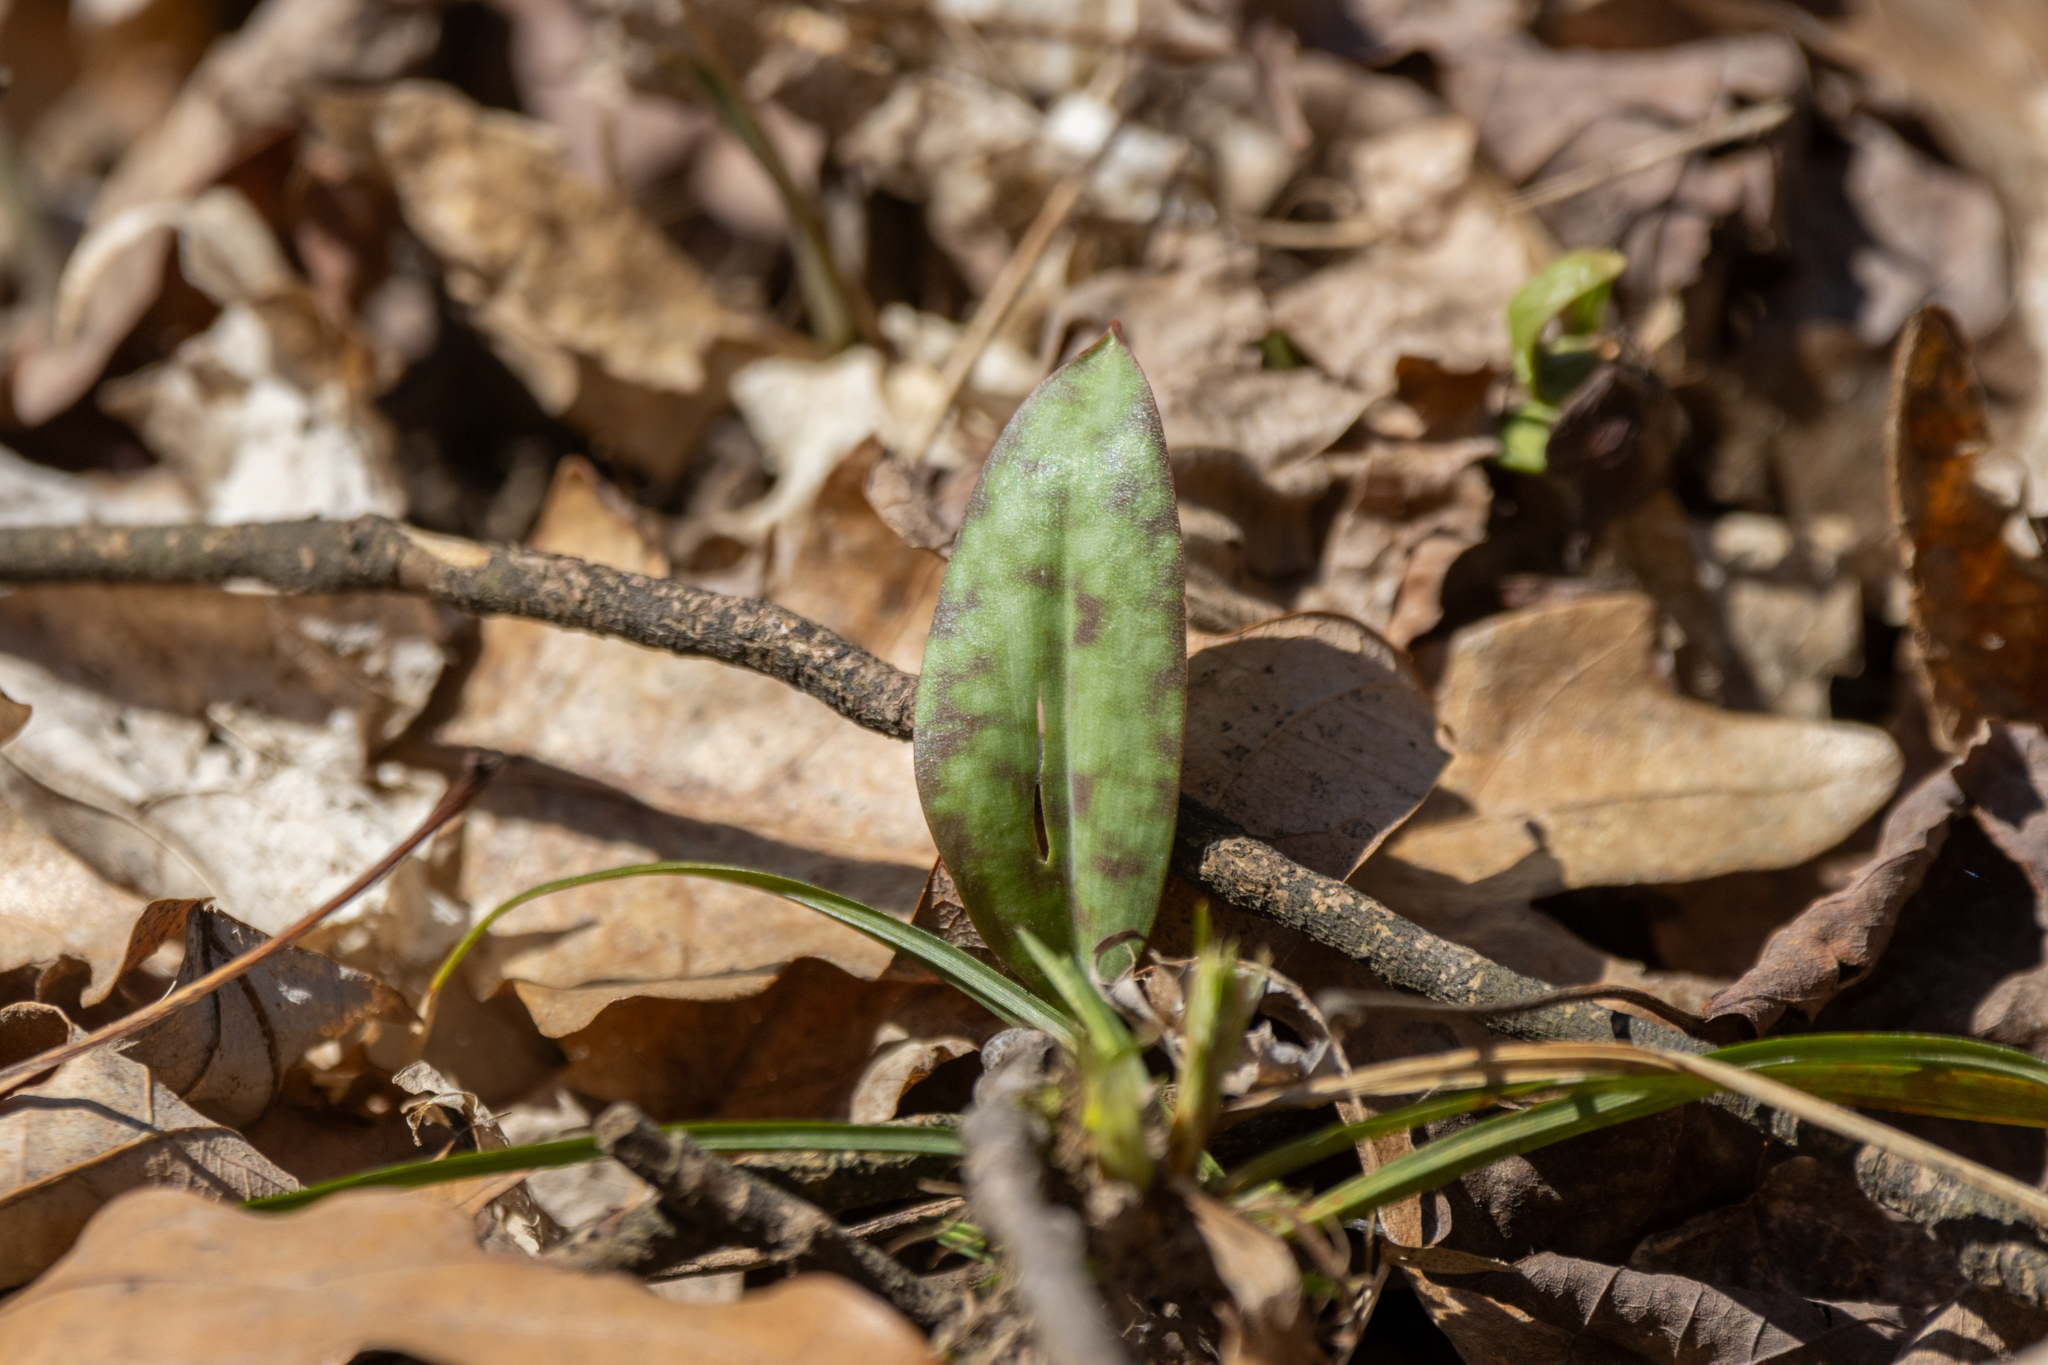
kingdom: Plantae
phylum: Tracheophyta
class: Liliopsida
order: Liliales
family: Liliaceae
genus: Erythronium
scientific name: Erythronium americanum
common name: Yellow adder's-tongue
